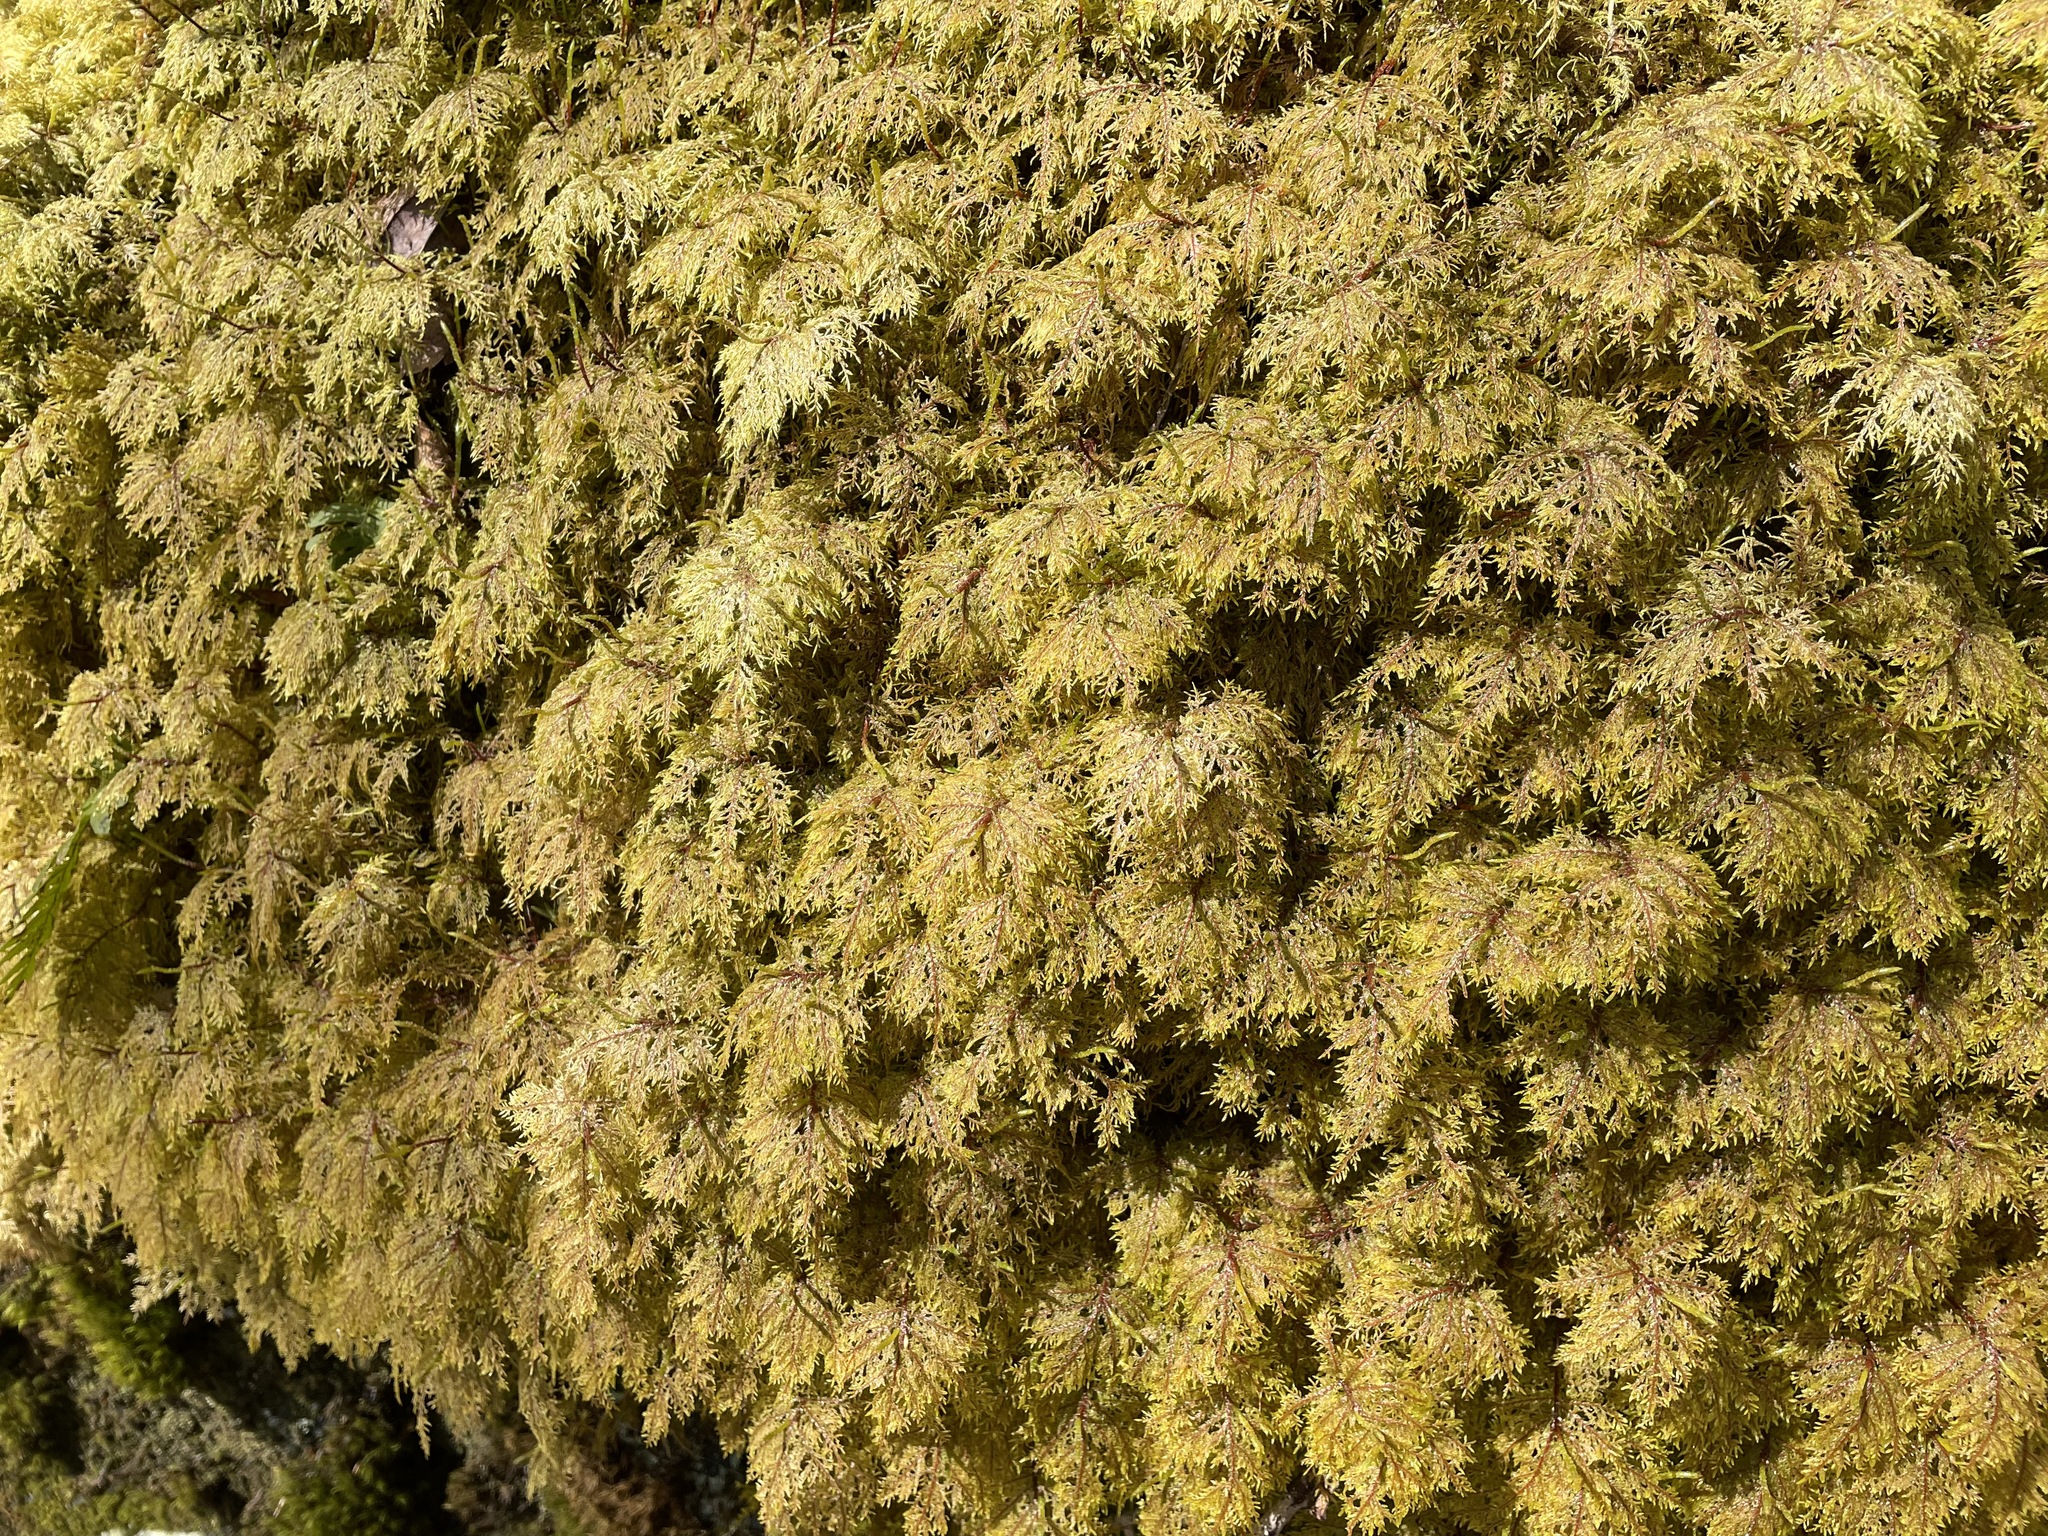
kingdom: Plantae
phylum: Bryophyta
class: Bryopsida
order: Hypnales
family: Hylocomiaceae
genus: Hylocomium
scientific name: Hylocomium splendens
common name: Stairstep moss
